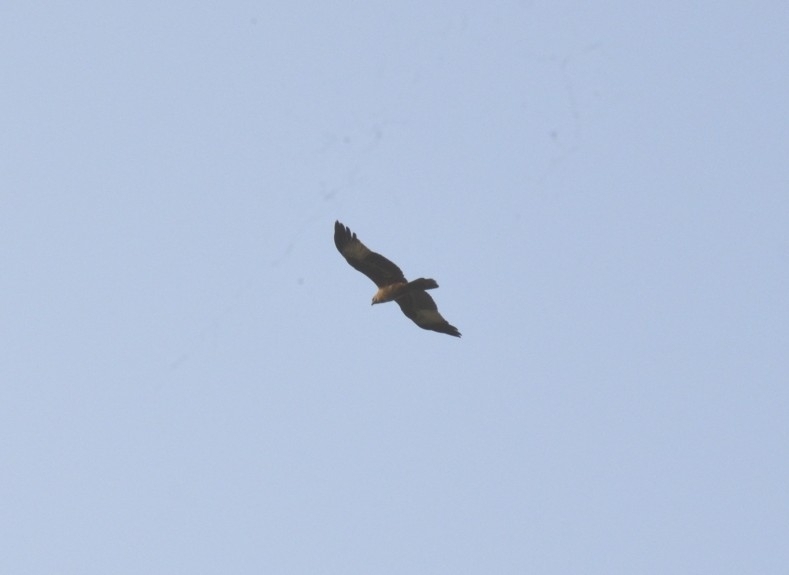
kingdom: Animalia
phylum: Chordata
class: Aves
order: Accipitriformes
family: Accipitridae
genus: Haliastur
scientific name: Haliastur indus
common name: Brahminy kite
